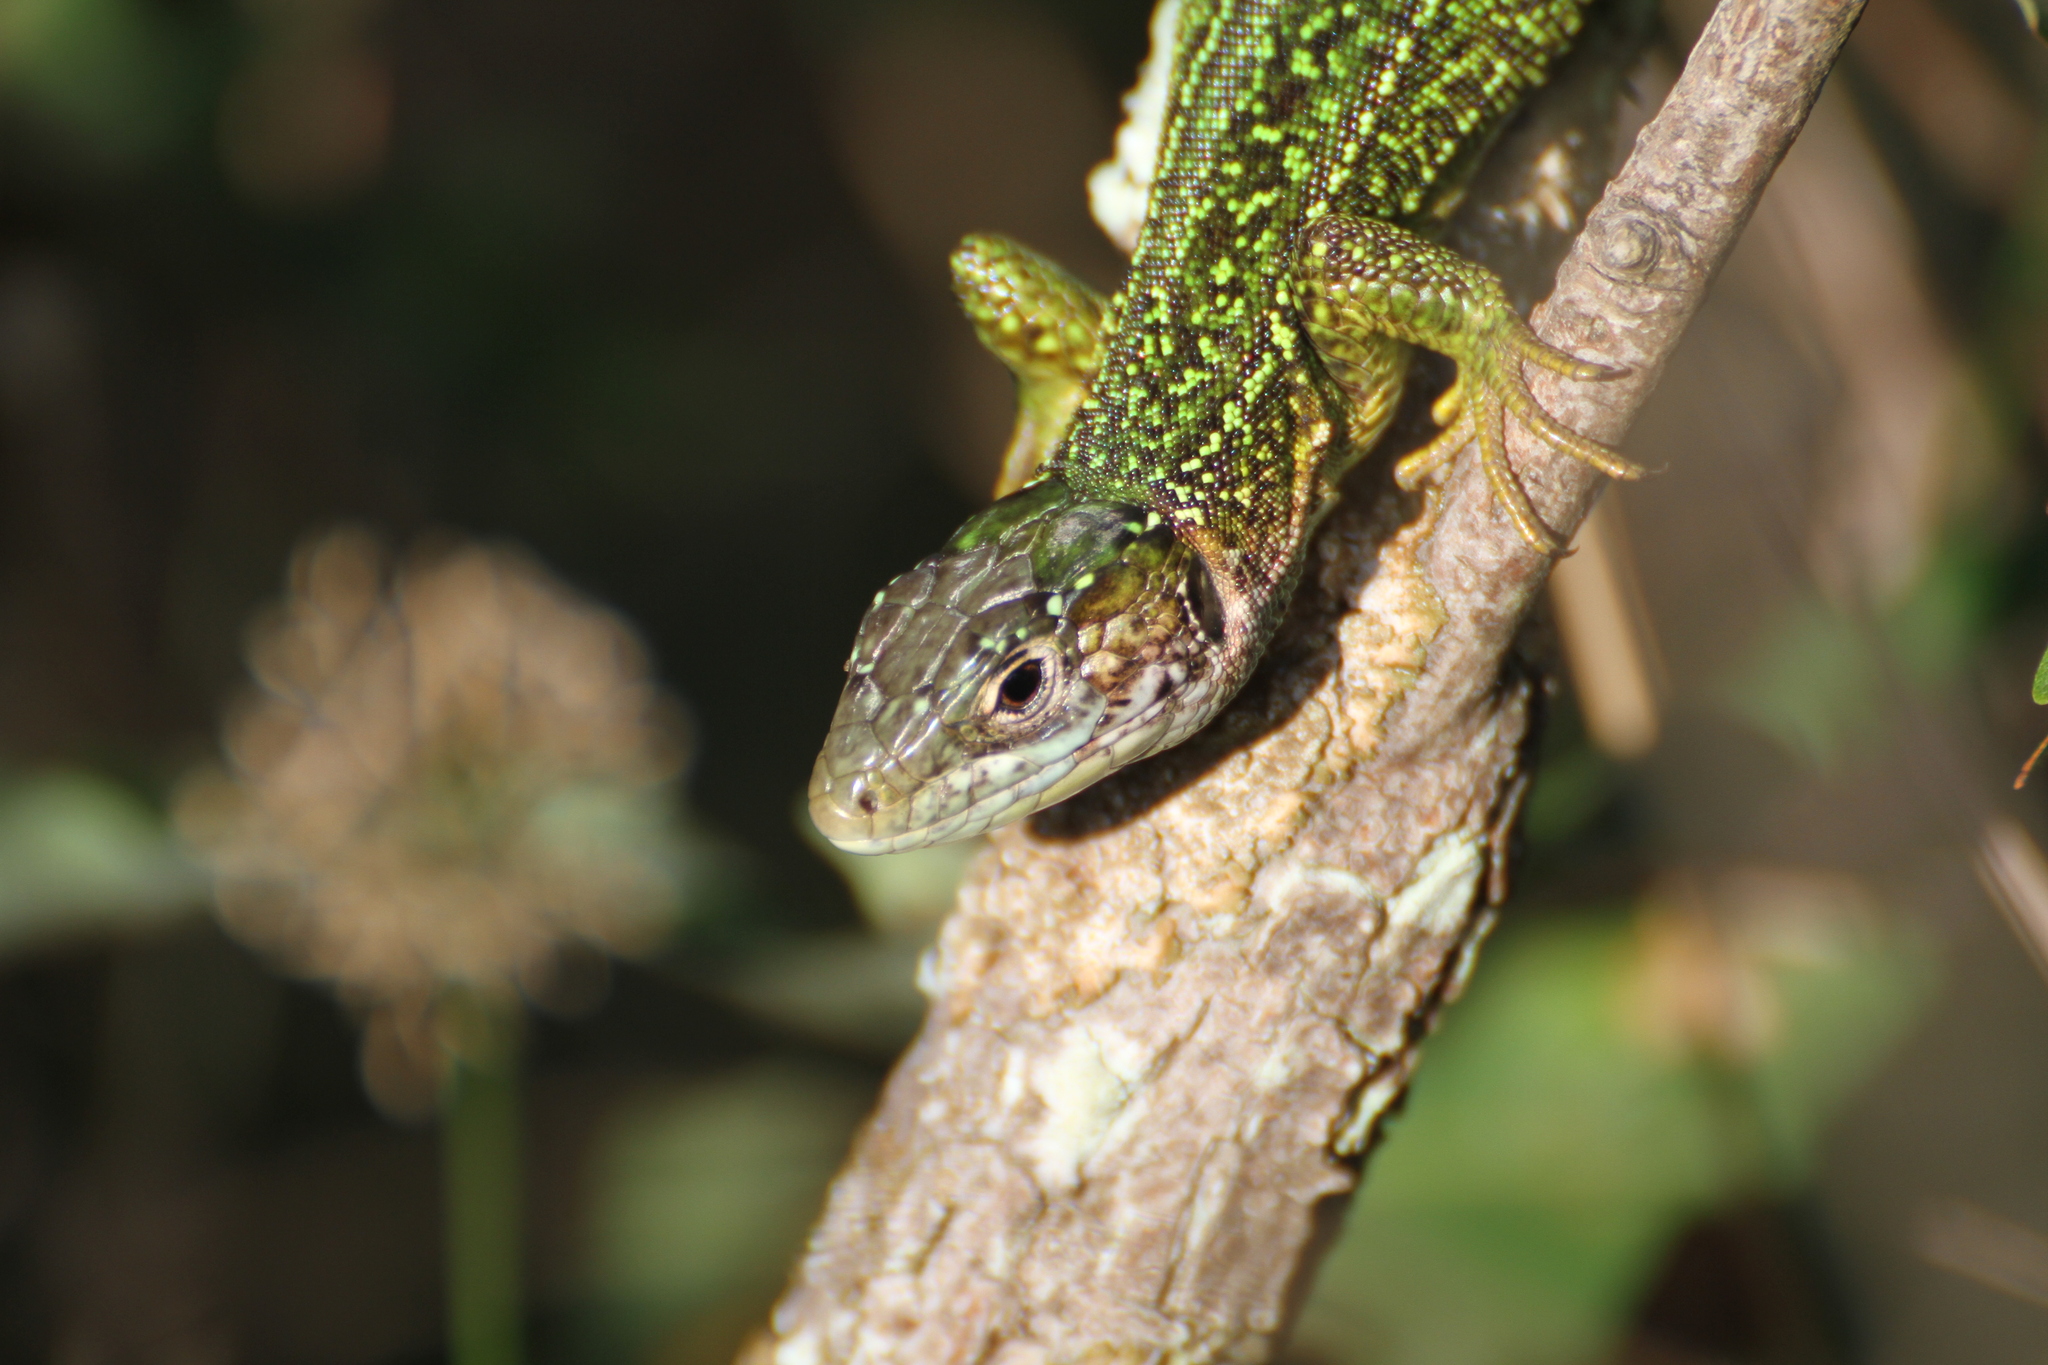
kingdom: Animalia
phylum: Chordata
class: Squamata
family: Lacertidae
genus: Lacerta
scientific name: Lacerta bilineata
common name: Western green lizard
